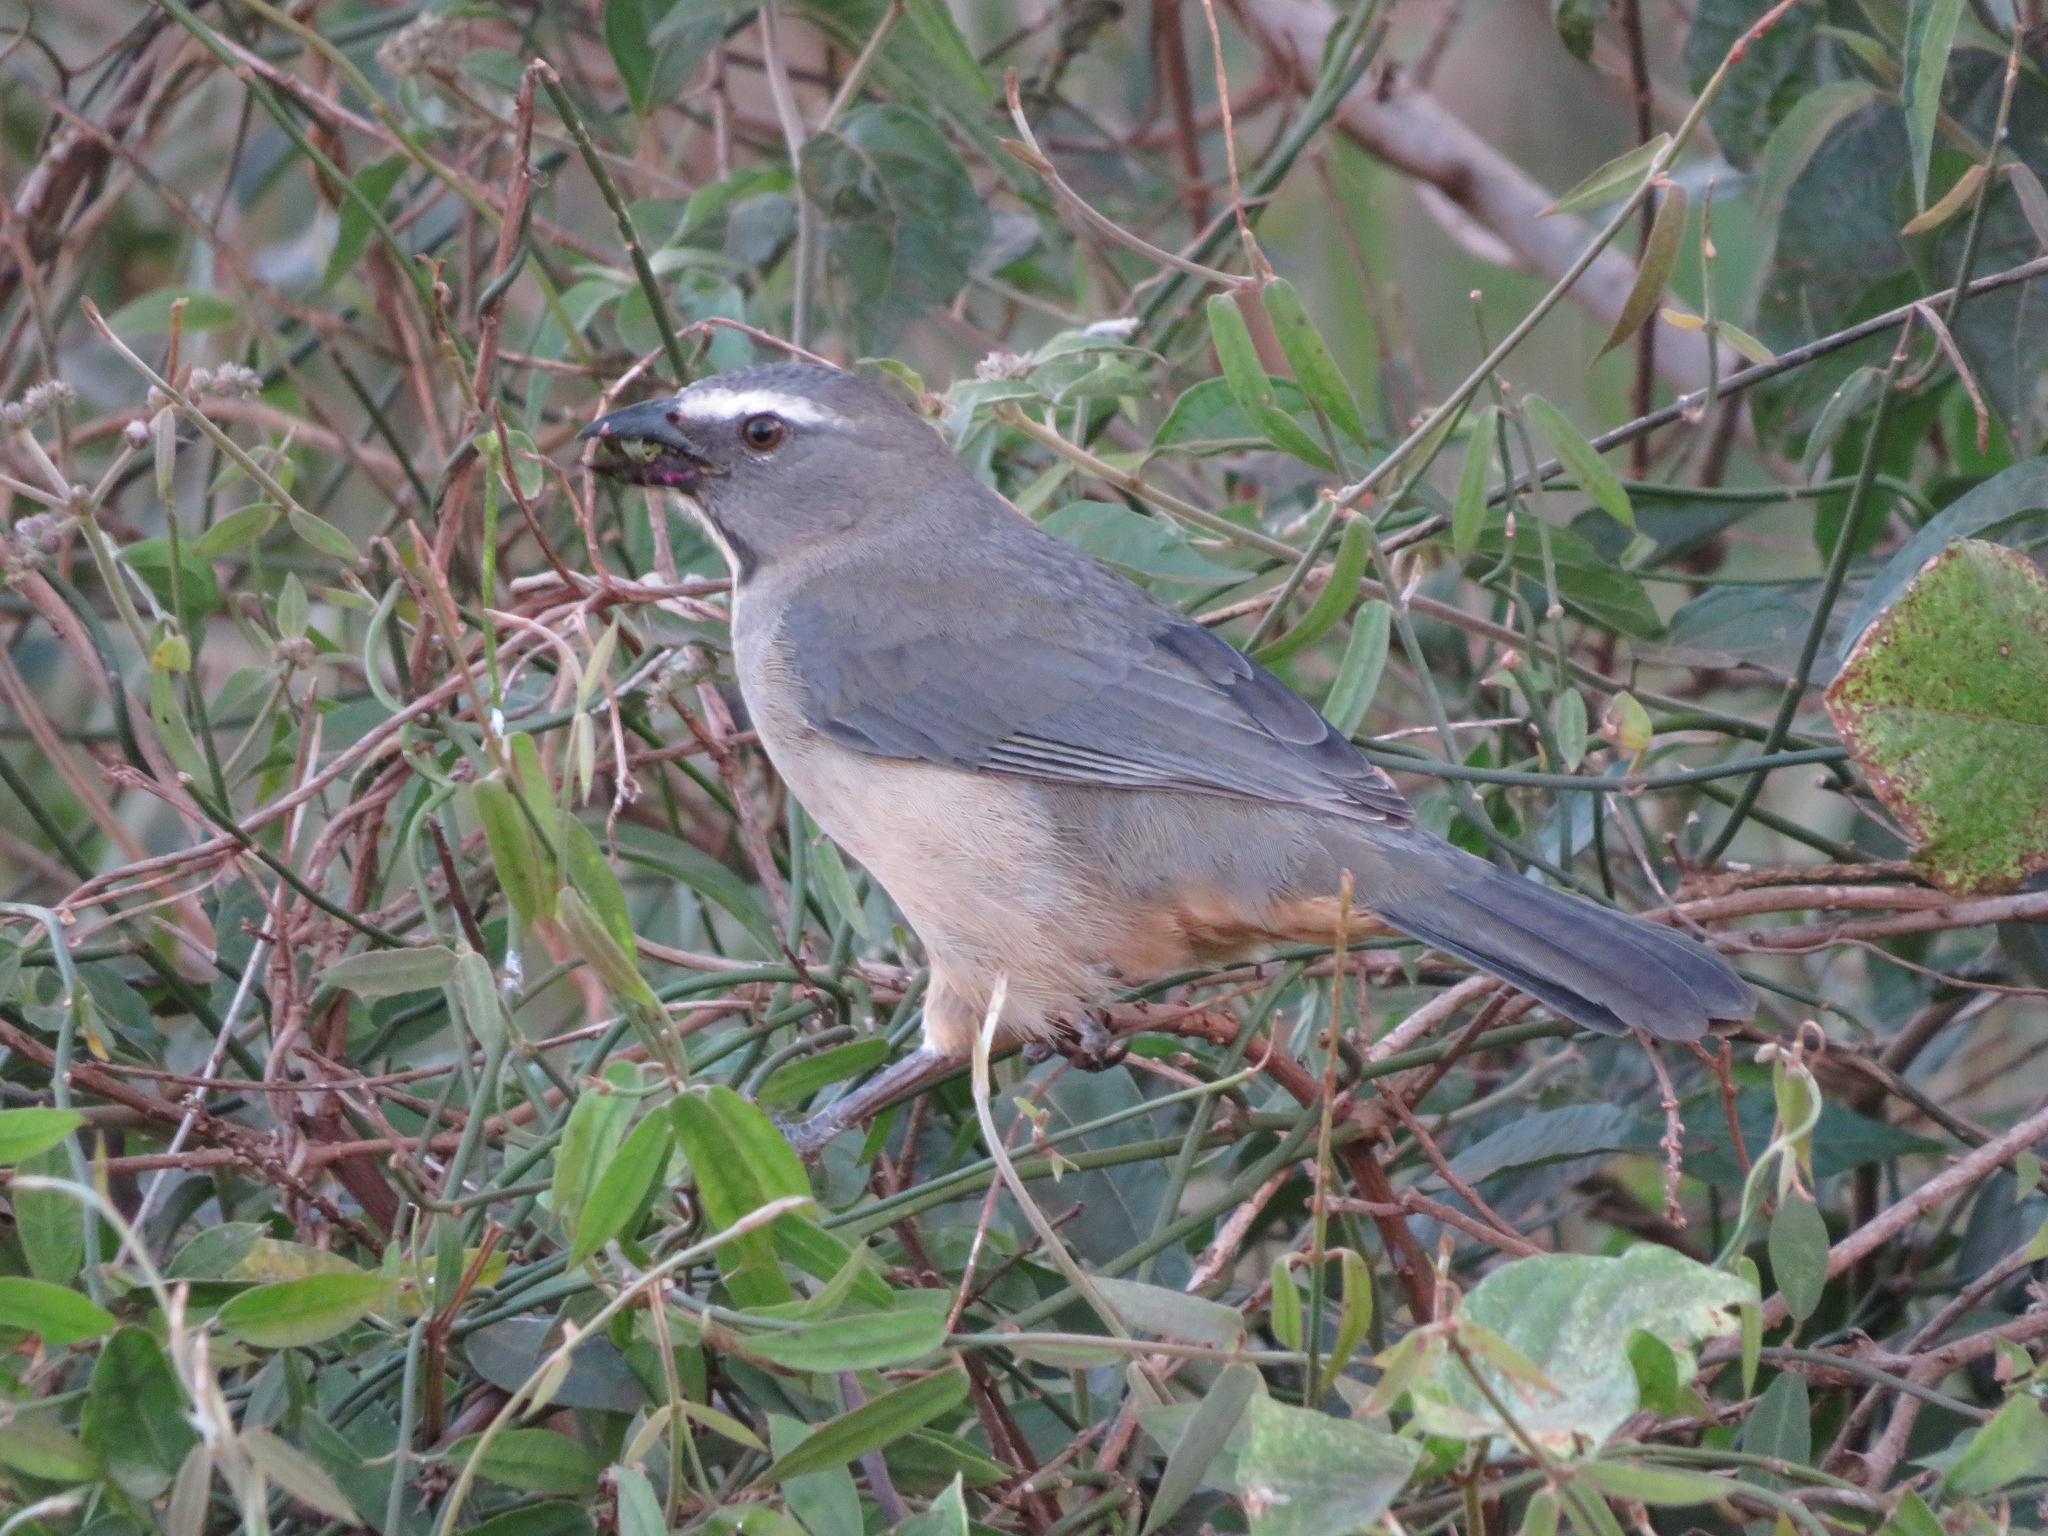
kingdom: Animalia
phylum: Chordata
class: Aves
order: Passeriformes
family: Thraupidae
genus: Saltator
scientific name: Saltator coerulescens
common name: Grayish saltator
